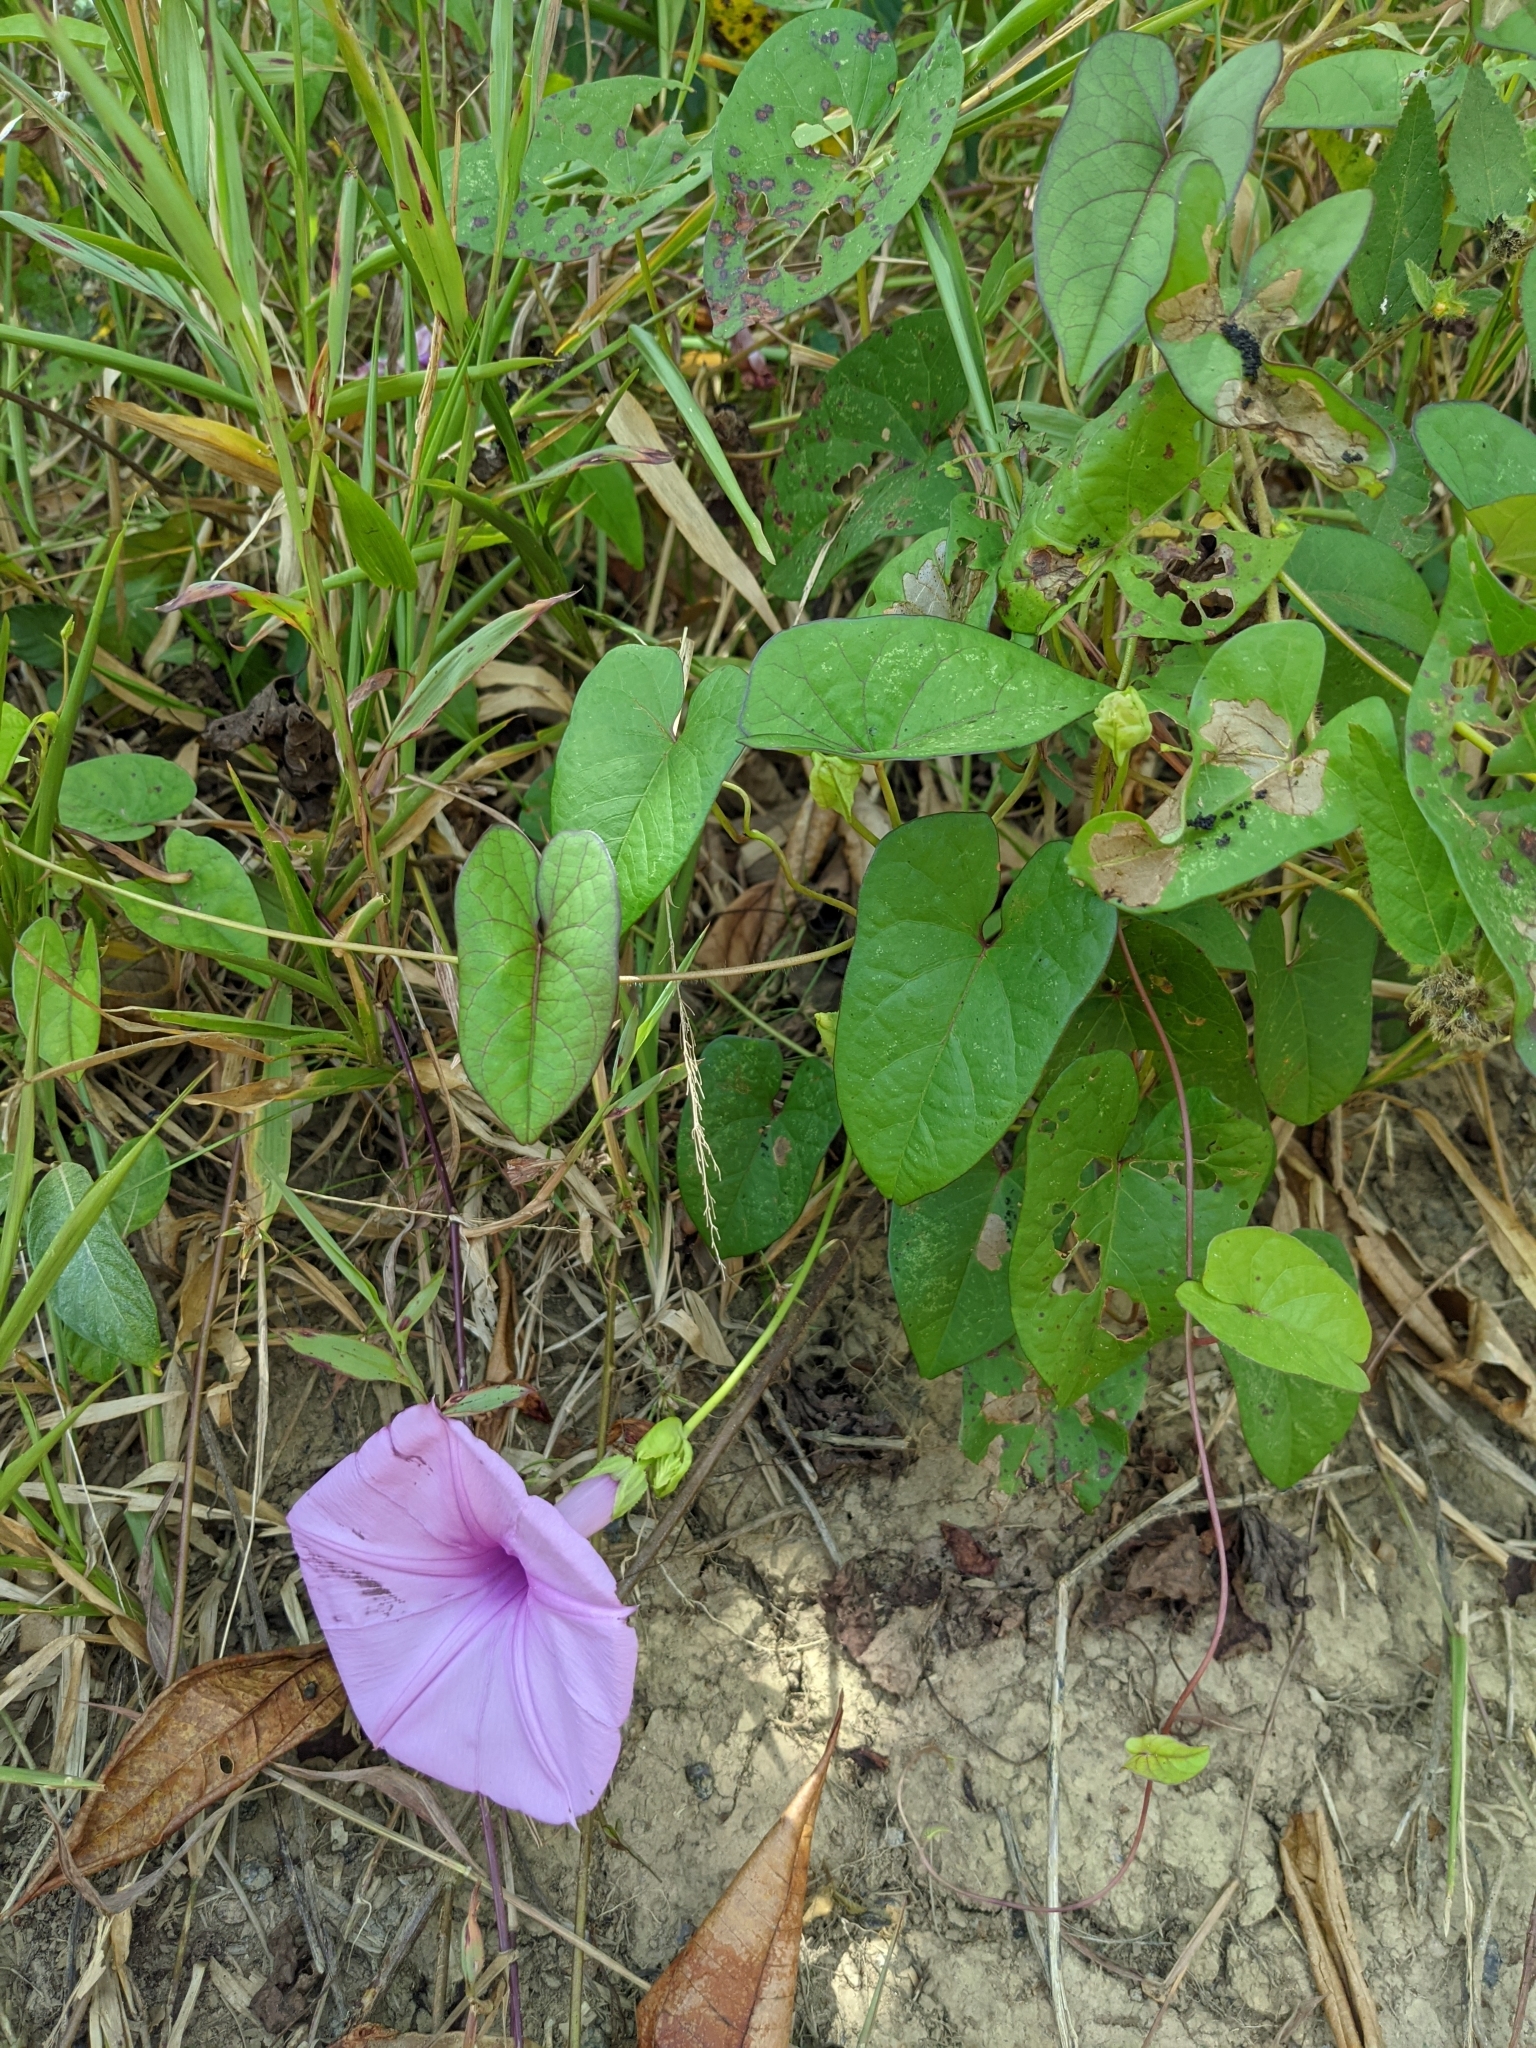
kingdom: Plantae
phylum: Tracheophyta
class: Magnoliopsida
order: Solanales
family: Convolvulaceae
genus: Ipomoea
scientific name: Ipomoea setifera
